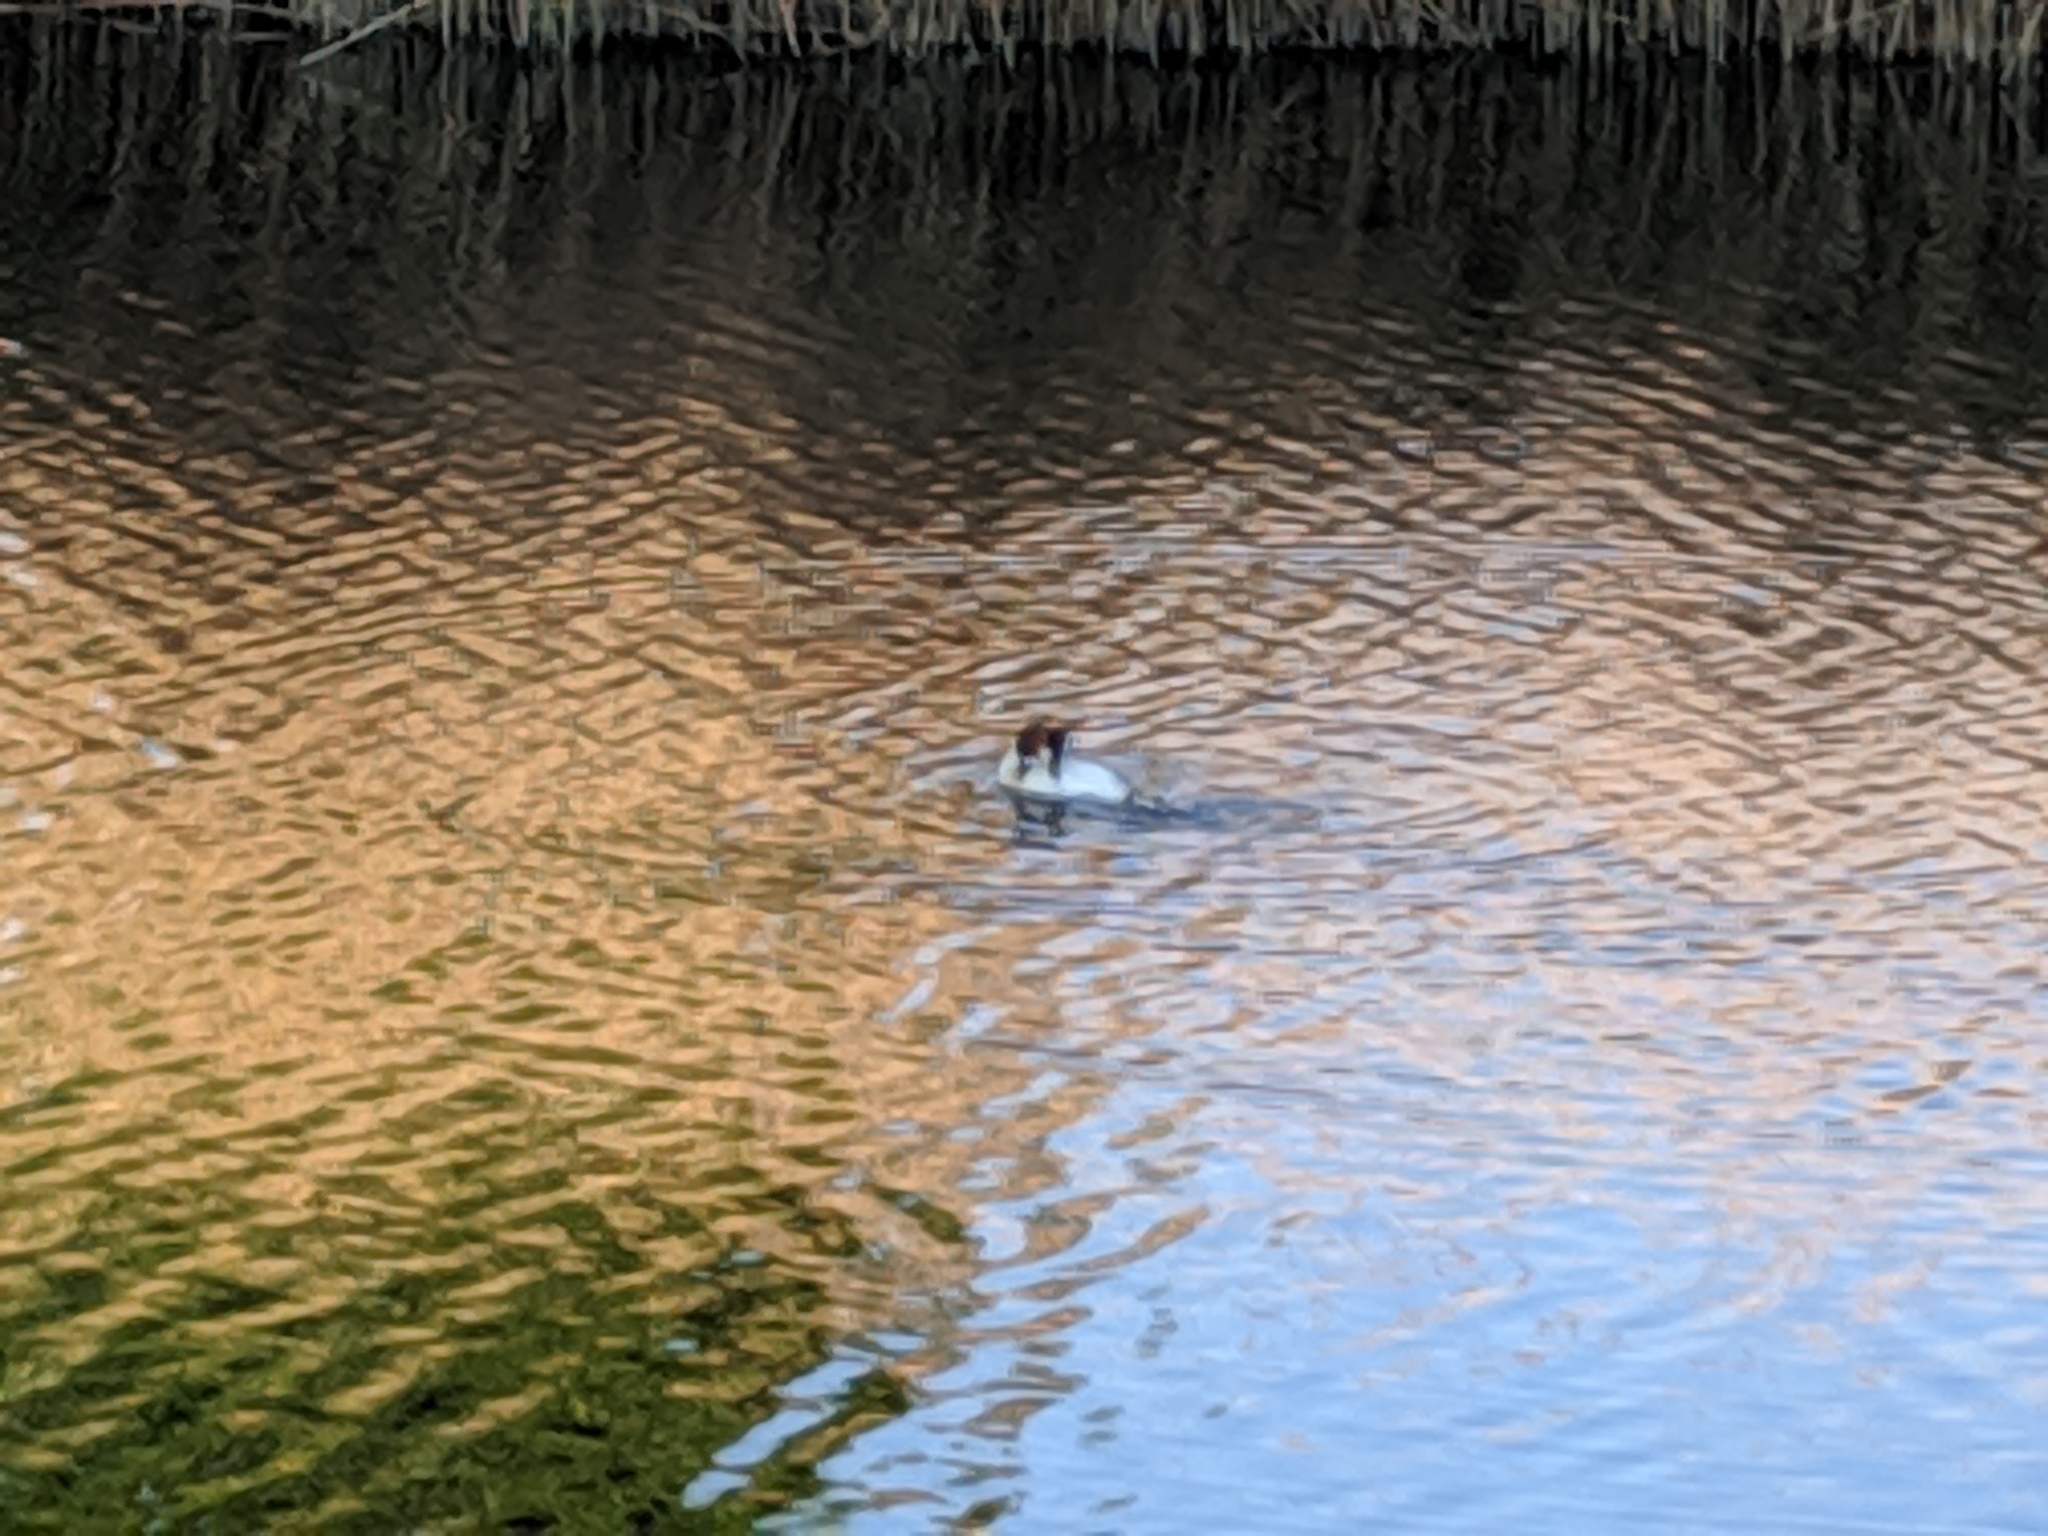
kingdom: Animalia
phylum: Chordata
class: Aves
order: Podicipediformes
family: Podicipedidae
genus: Podiceps
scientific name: Podiceps cristatus
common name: Great crested grebe
